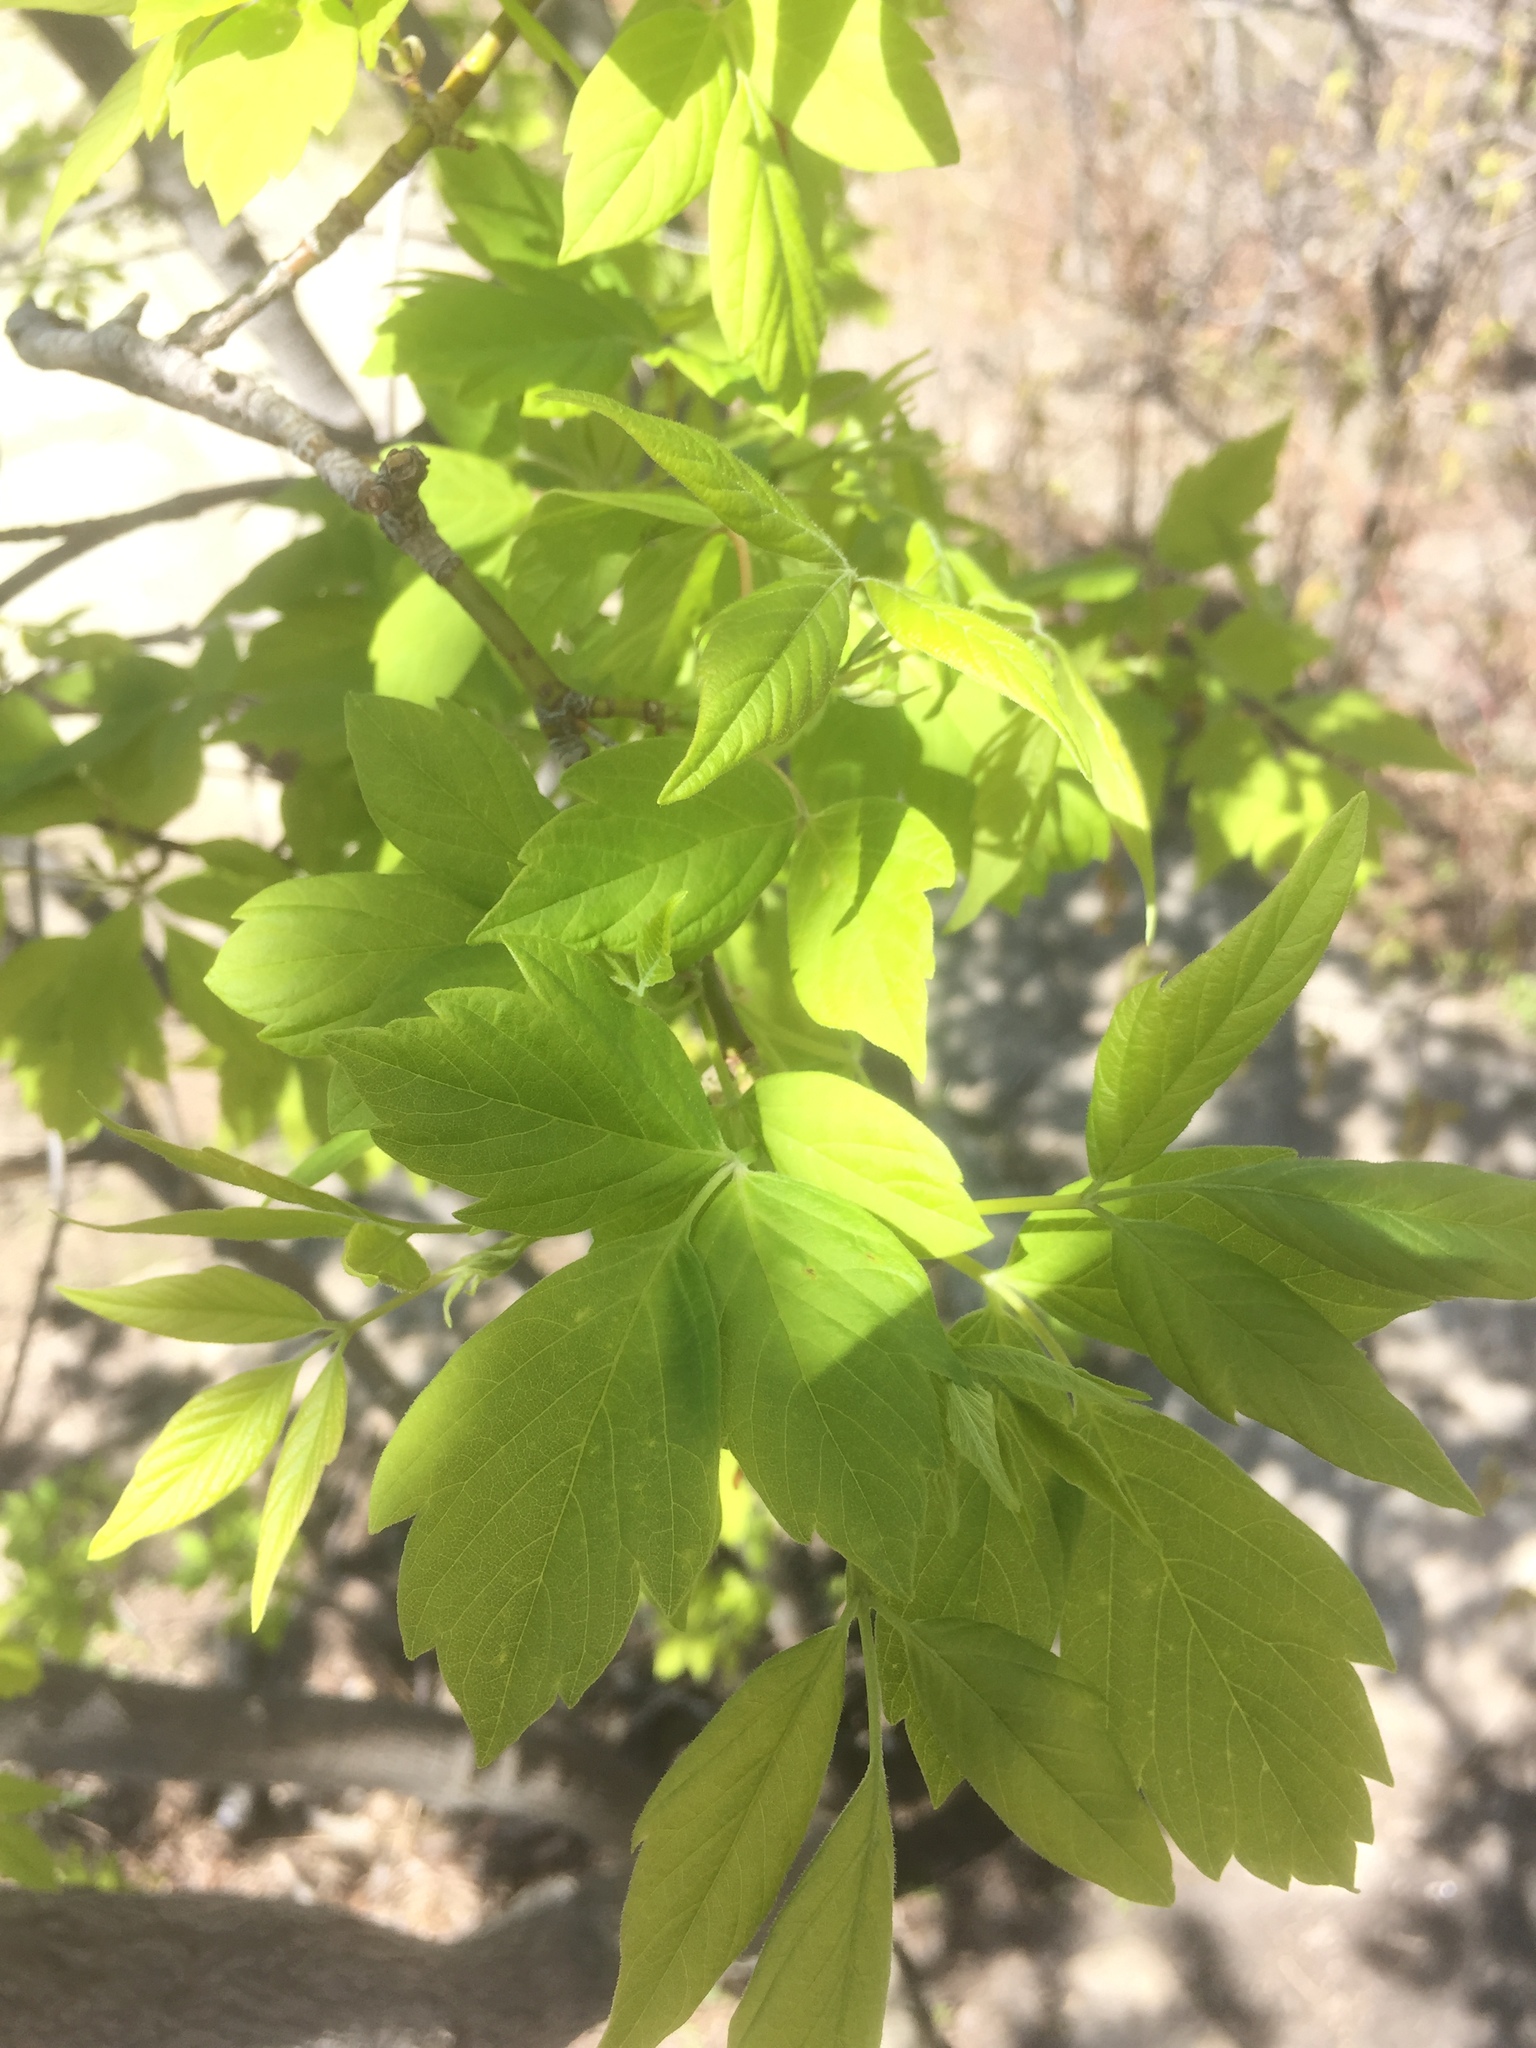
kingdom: Plantae
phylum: Tracheophyta
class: Magnoliopsida
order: Sapindales
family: Sapindaceae
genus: Acer
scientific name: Acer negundo
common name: Ashleaf maple
